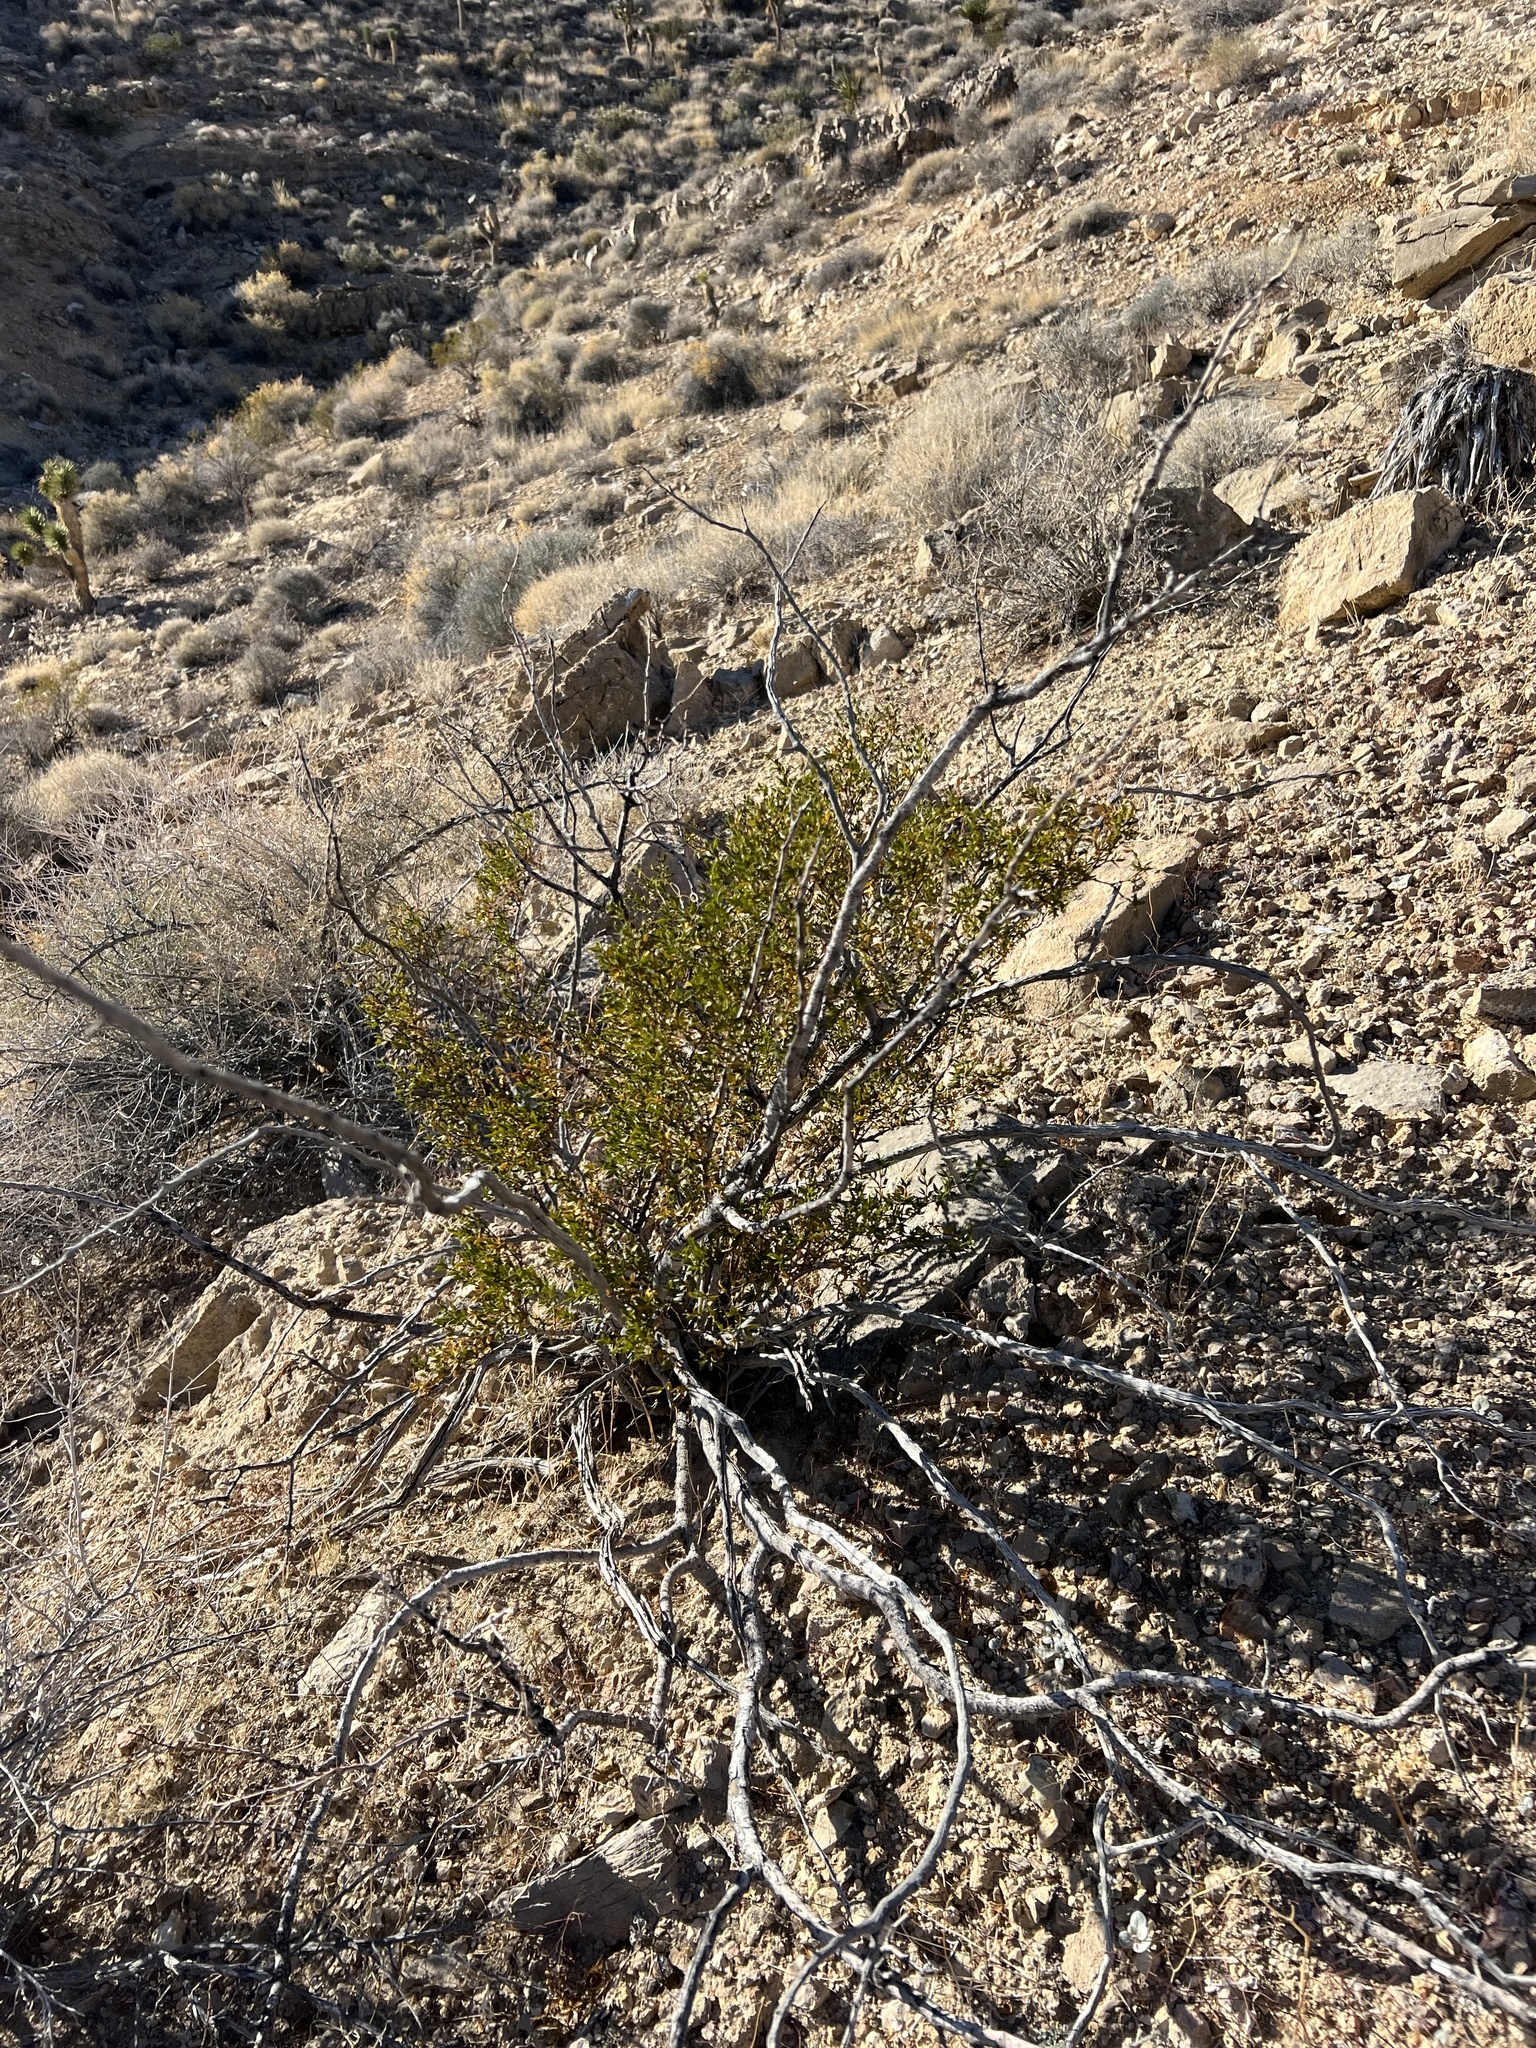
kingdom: Plantae
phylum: Tracheophyta
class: Magnoliopsida
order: Zygophyllales
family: Zygophyllaceae
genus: Larrea
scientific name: Larrea tridentata
